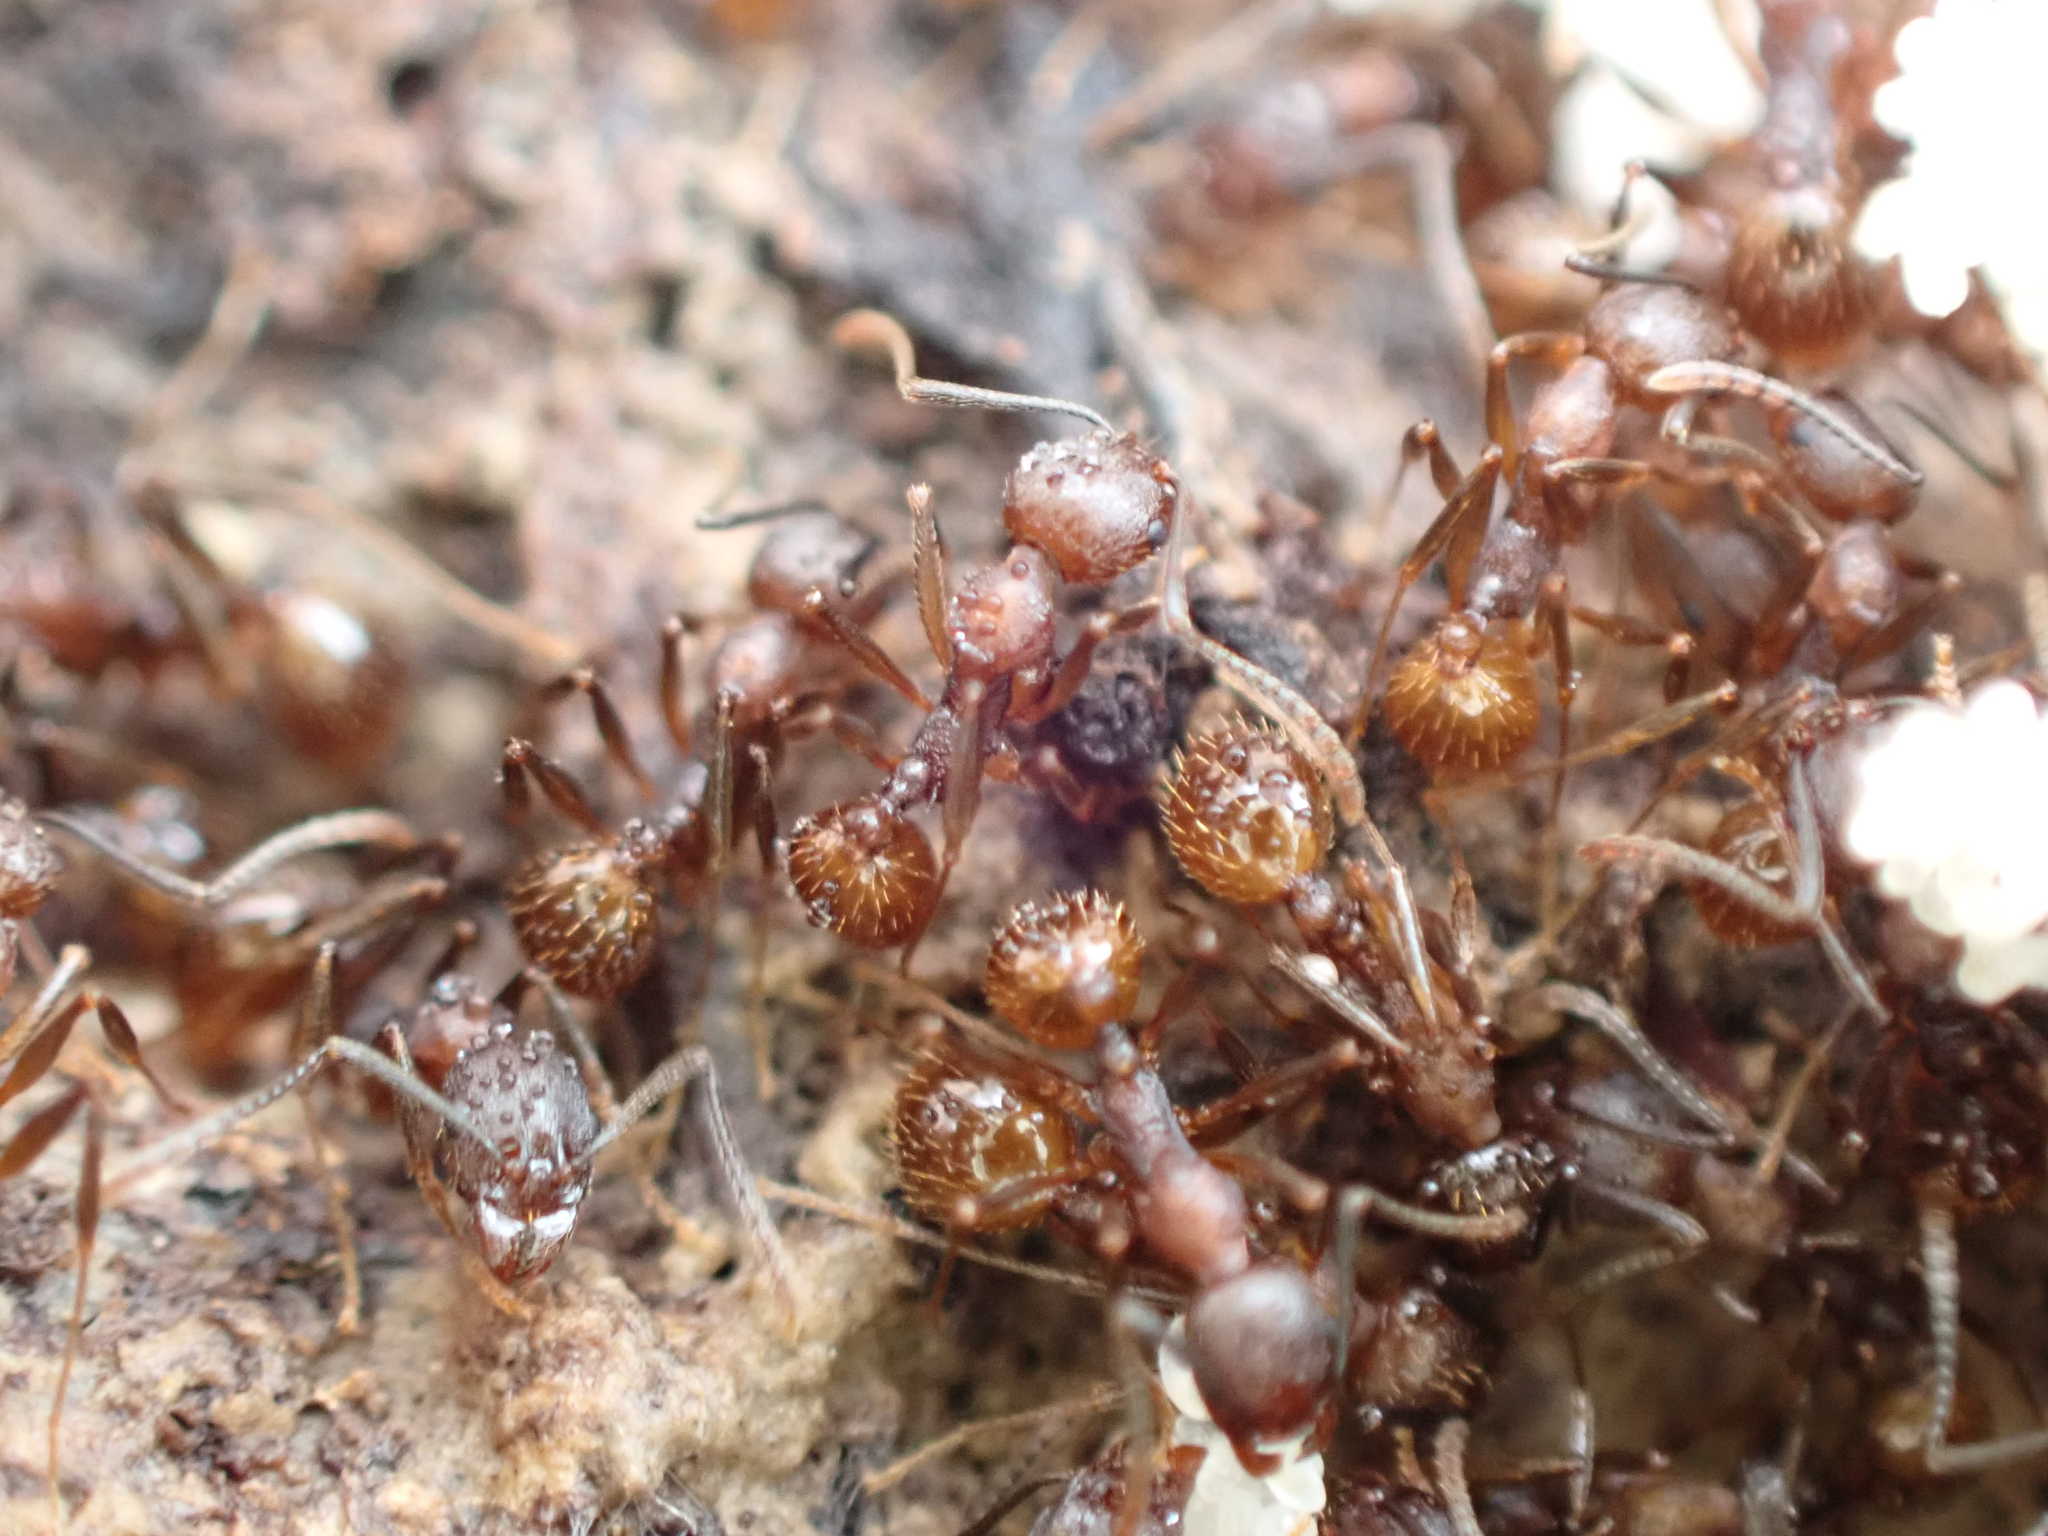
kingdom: Animalia
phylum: Arthropoda
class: Insecta
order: Hymenoptera
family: Formicidae
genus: Aphaenogaster
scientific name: Aphaenogaster fulva
